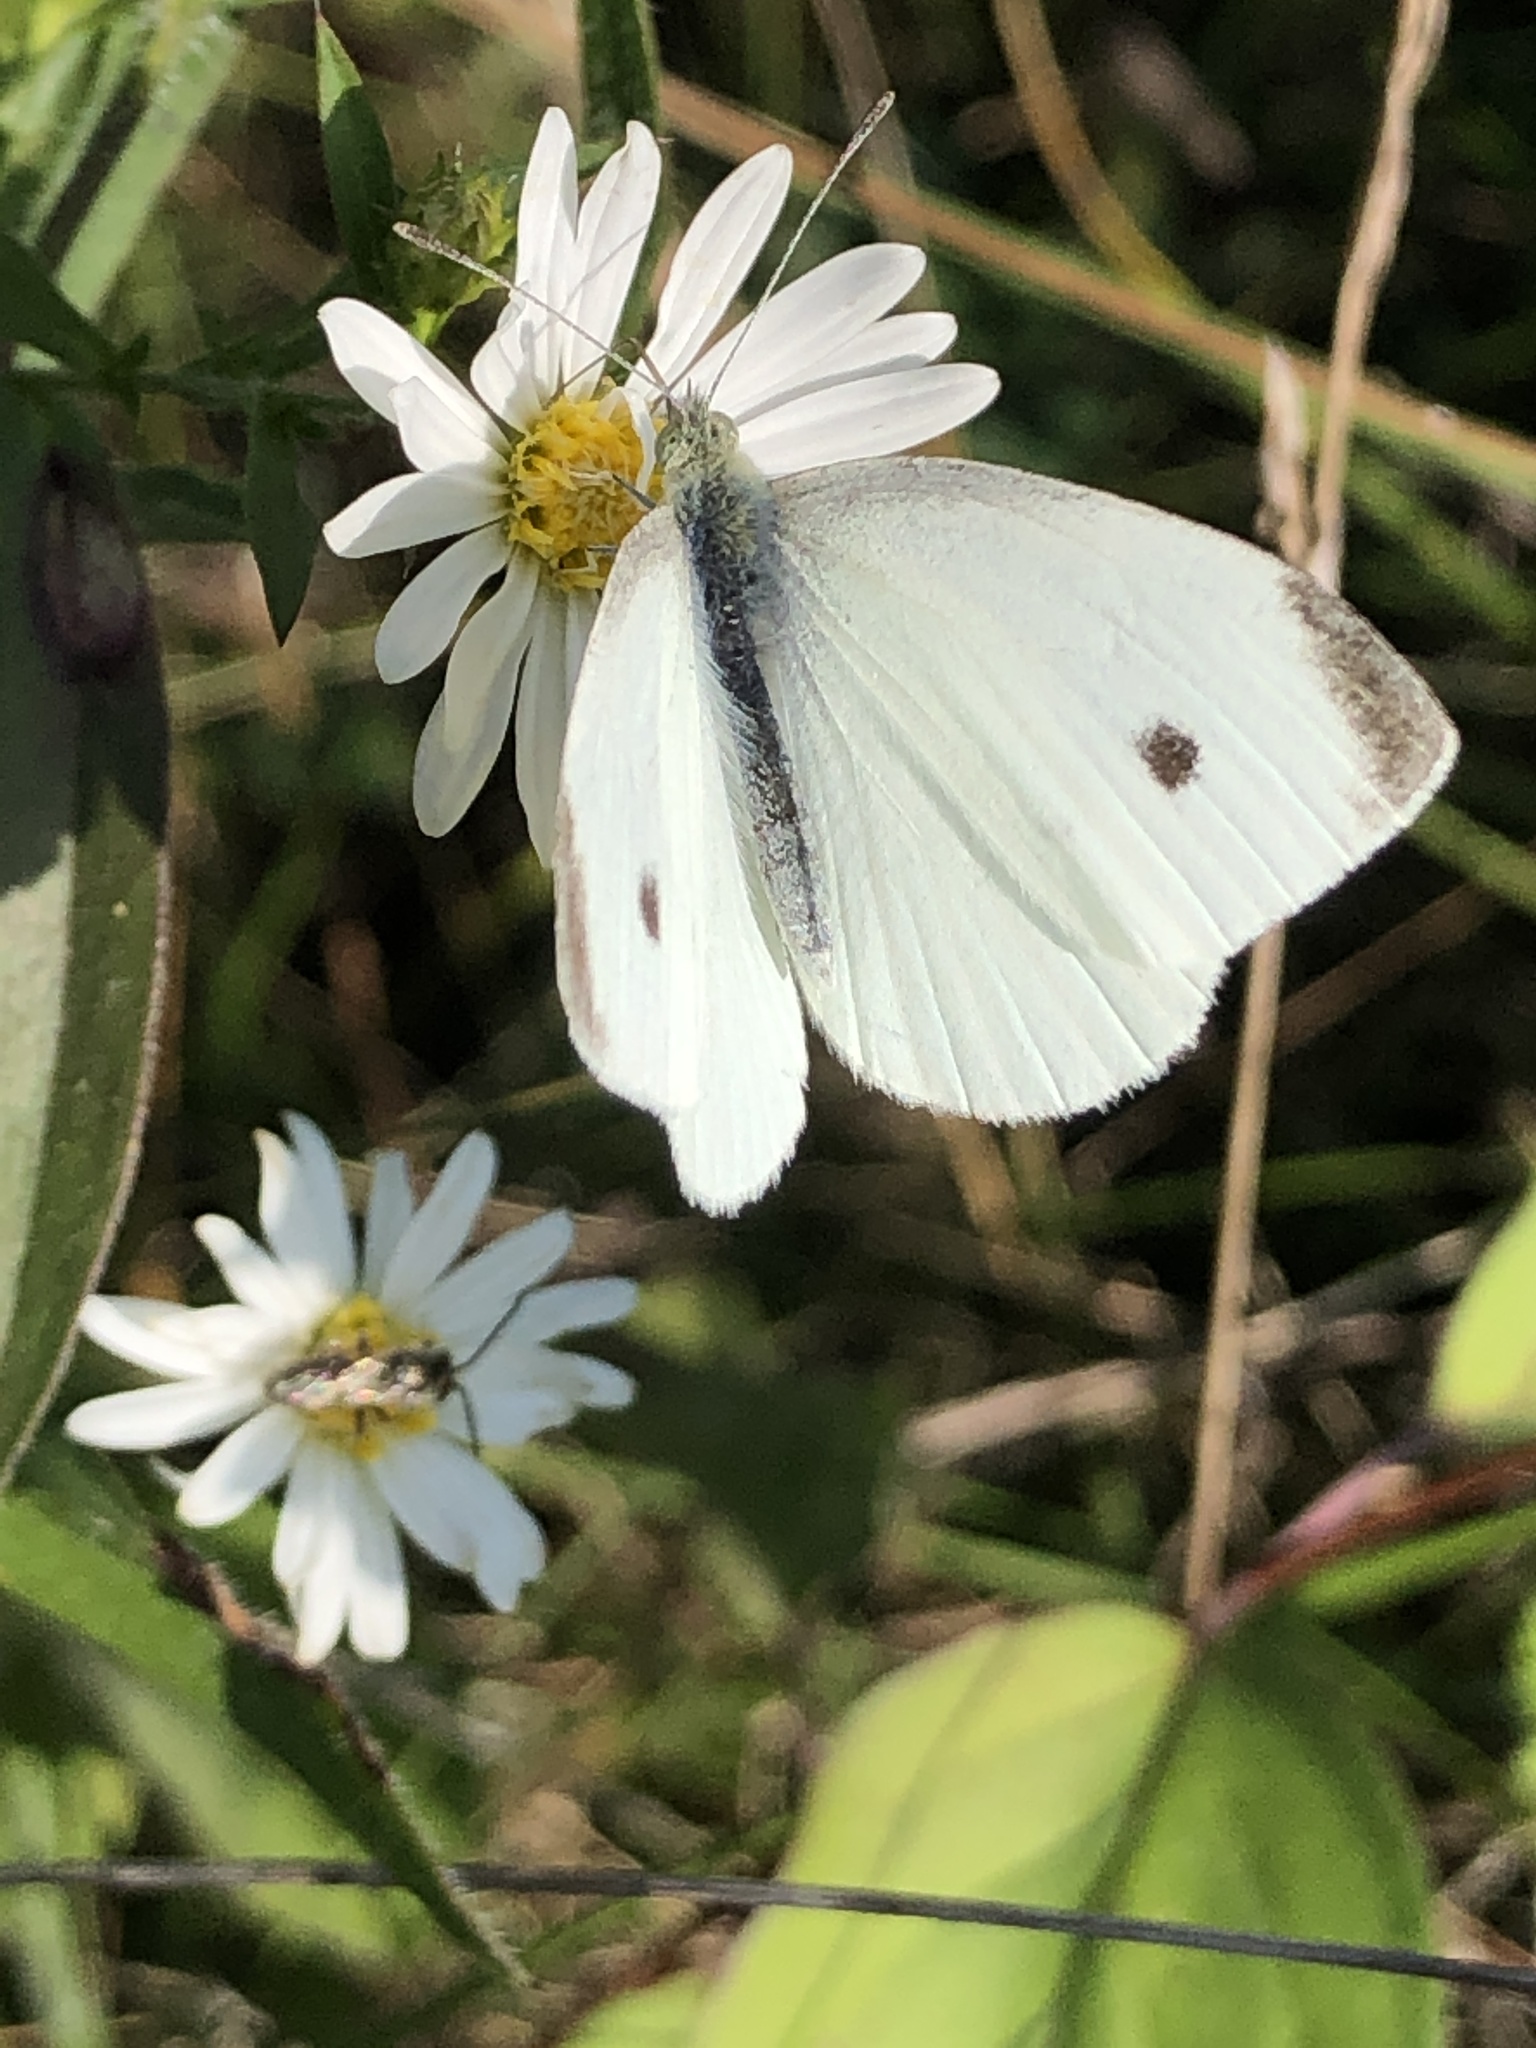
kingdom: Animalia
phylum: Arthropoda
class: Insecta
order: Lepidoptera
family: Pieridae
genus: Pieris
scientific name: Pieris rapae
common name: Small white
